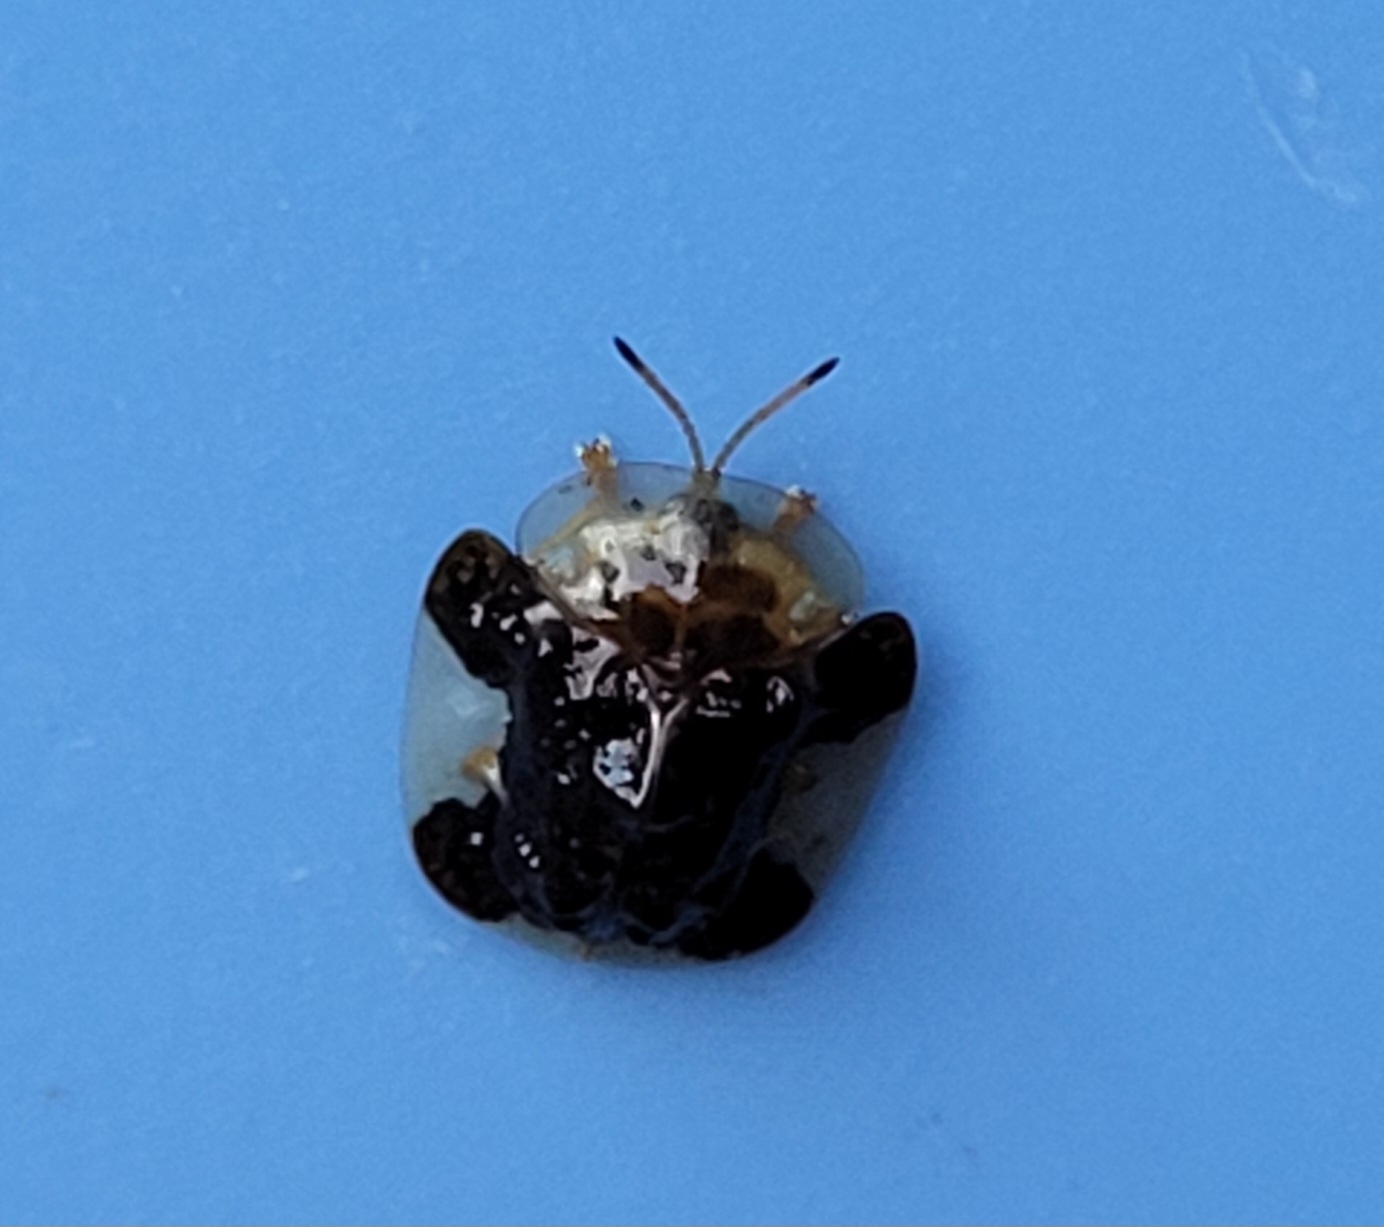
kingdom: Animalia
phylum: Arthropoda
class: Insecta
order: Coleoptera
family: Chrysomelidae
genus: Helocassis
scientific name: Helocassis clavata
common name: Clavate tortoise beetle
